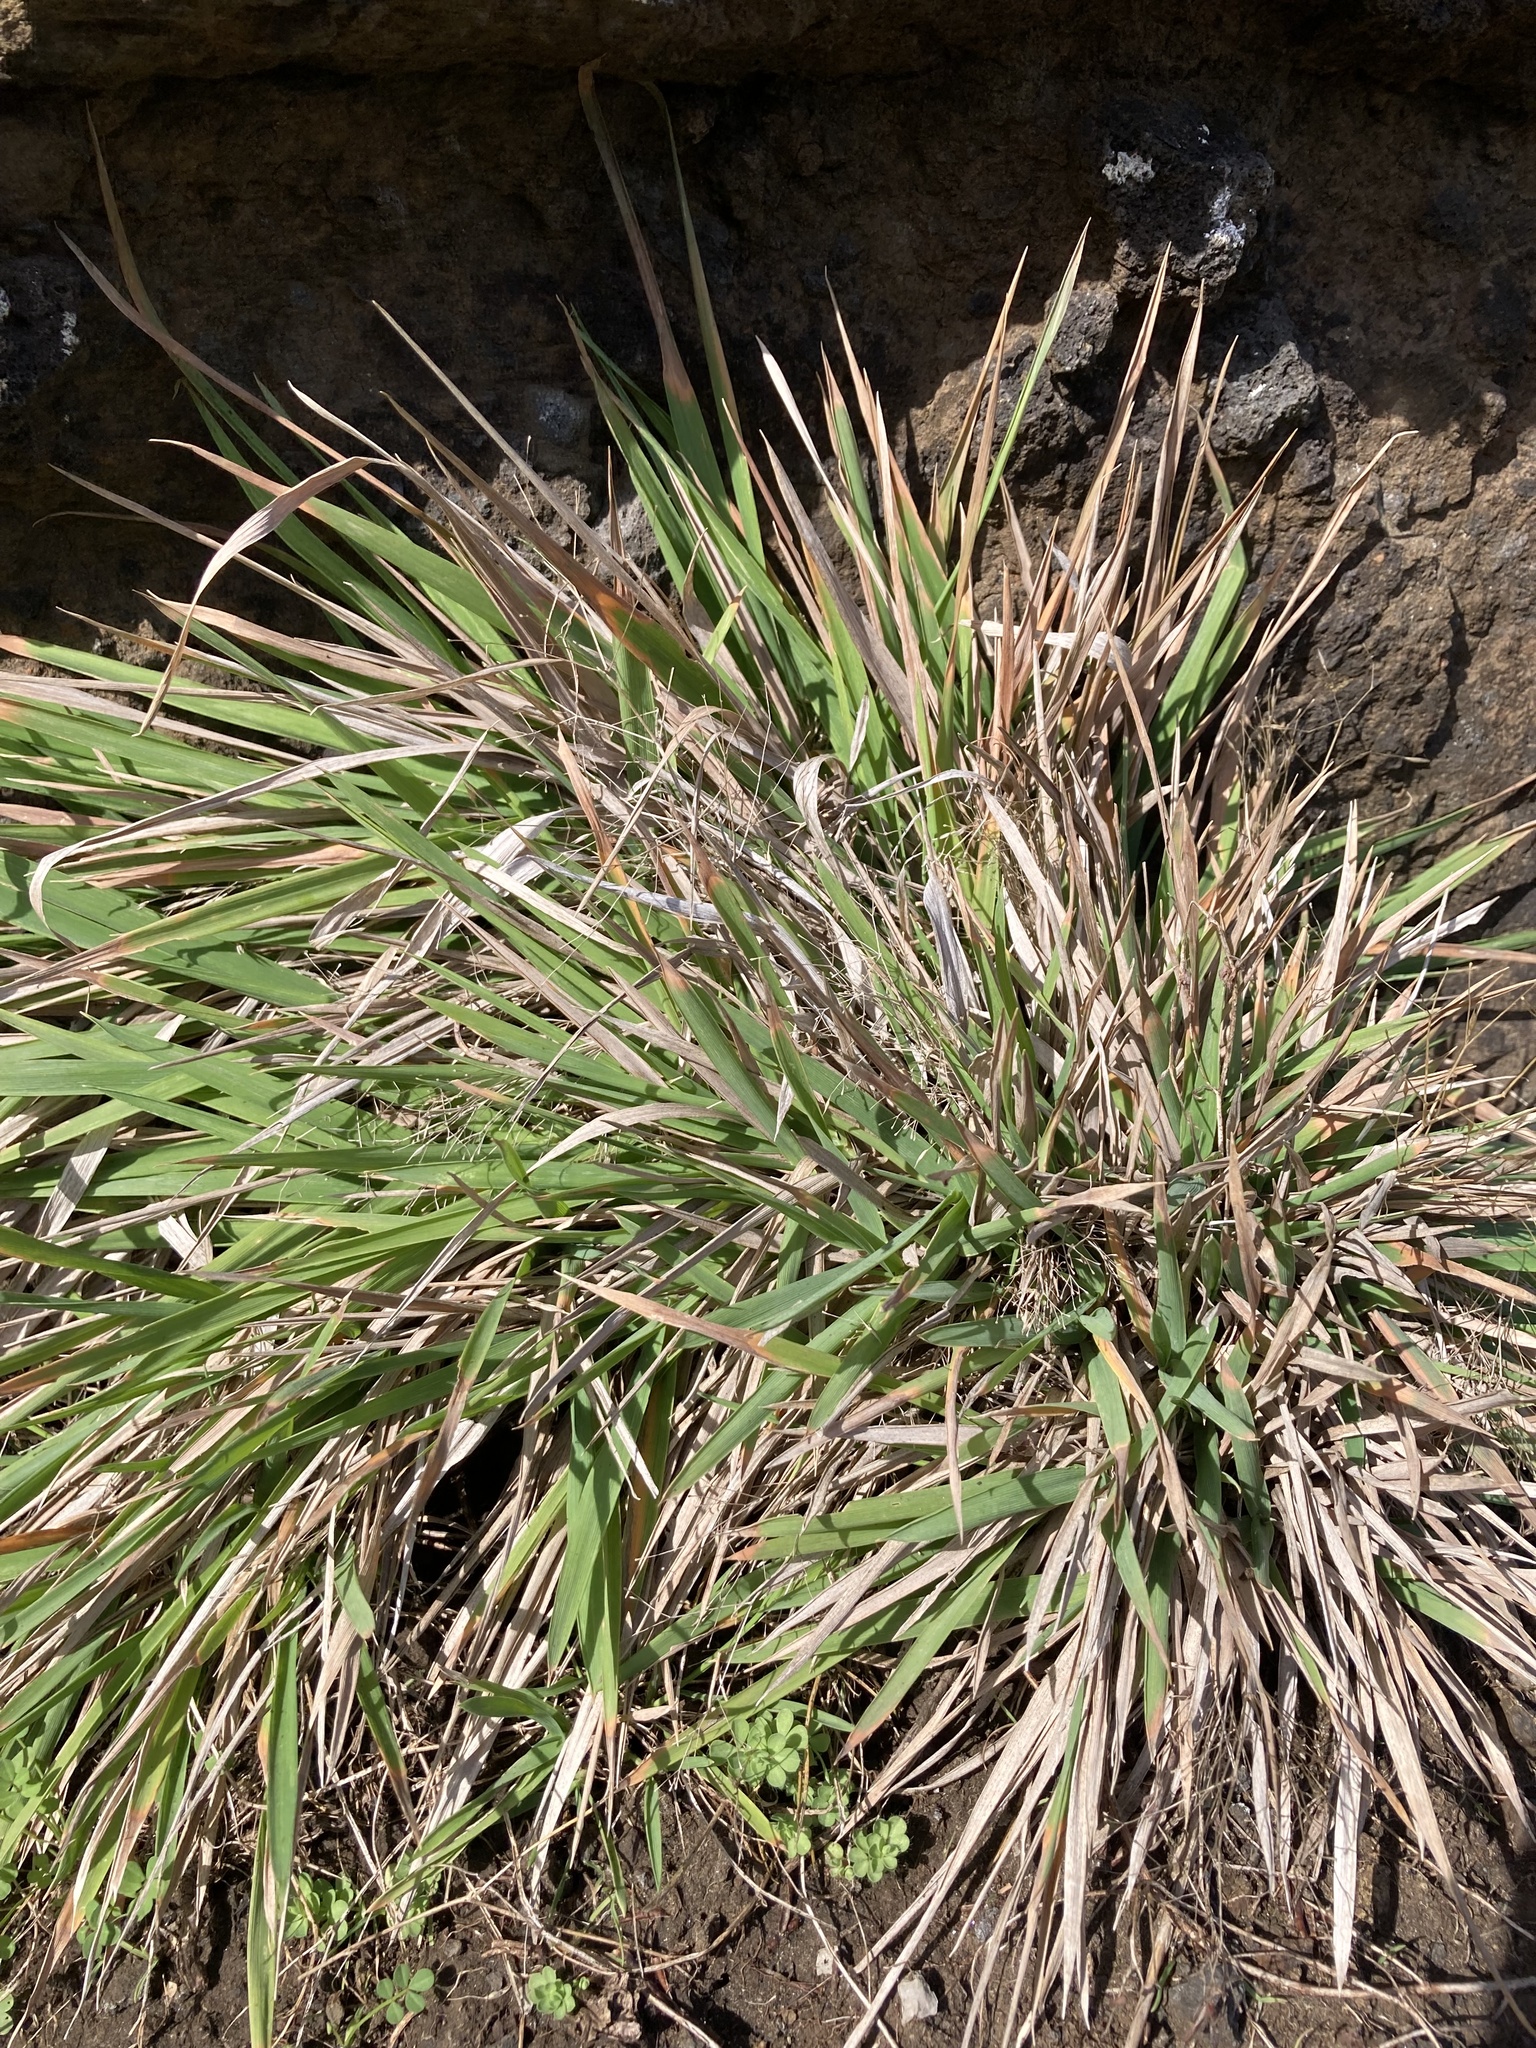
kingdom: Plantae
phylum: Tracheophyta
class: Liliopsida
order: Poales
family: Poaceae
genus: Lachnagrostis
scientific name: Lachnagrostis billardierei
